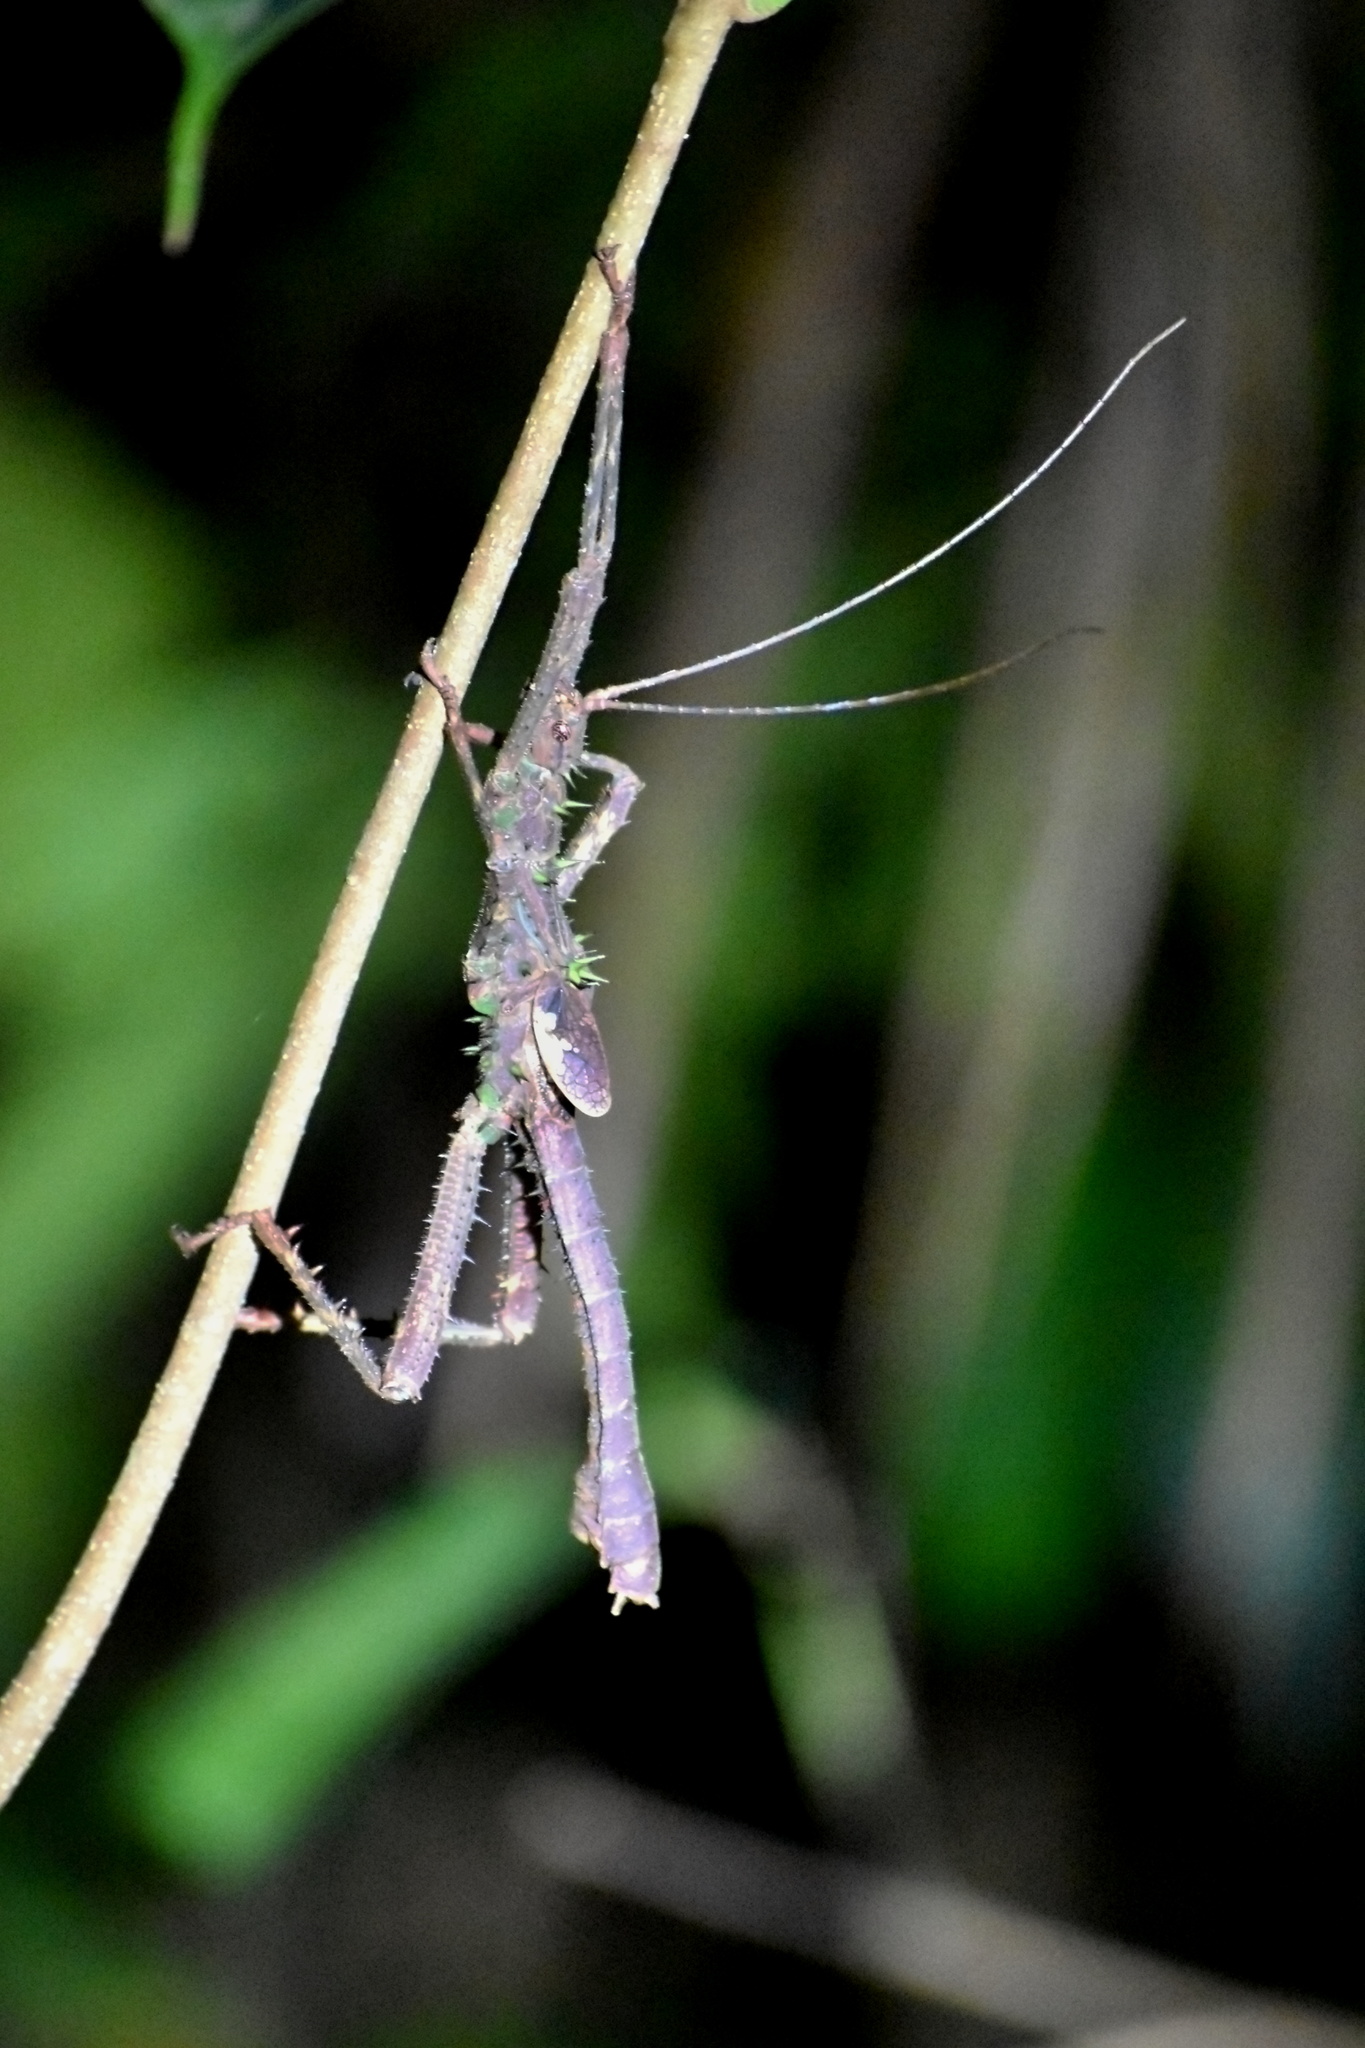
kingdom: Animalia
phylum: Arthropoda
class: Insecta
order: Phasmida
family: Heteropterygidae
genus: Haaniella
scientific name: Haaniella saussurei
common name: Saussure's haaniella
